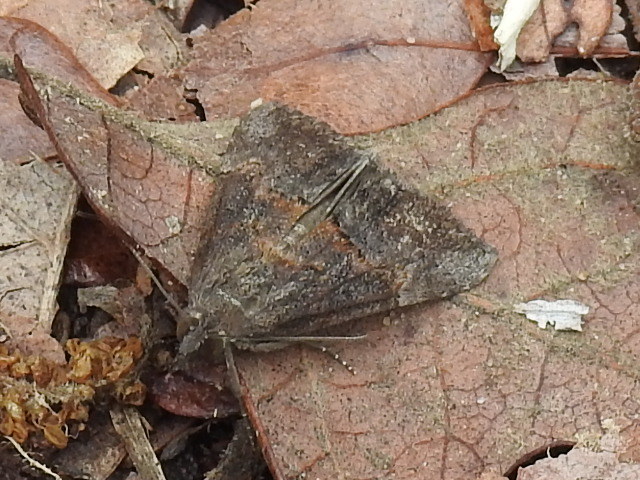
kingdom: Animalia
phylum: Arthropoda
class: Insecta
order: Lepidoptera
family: Erebidae
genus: Hypena
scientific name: Hypena scabra
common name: Green cloverworm
